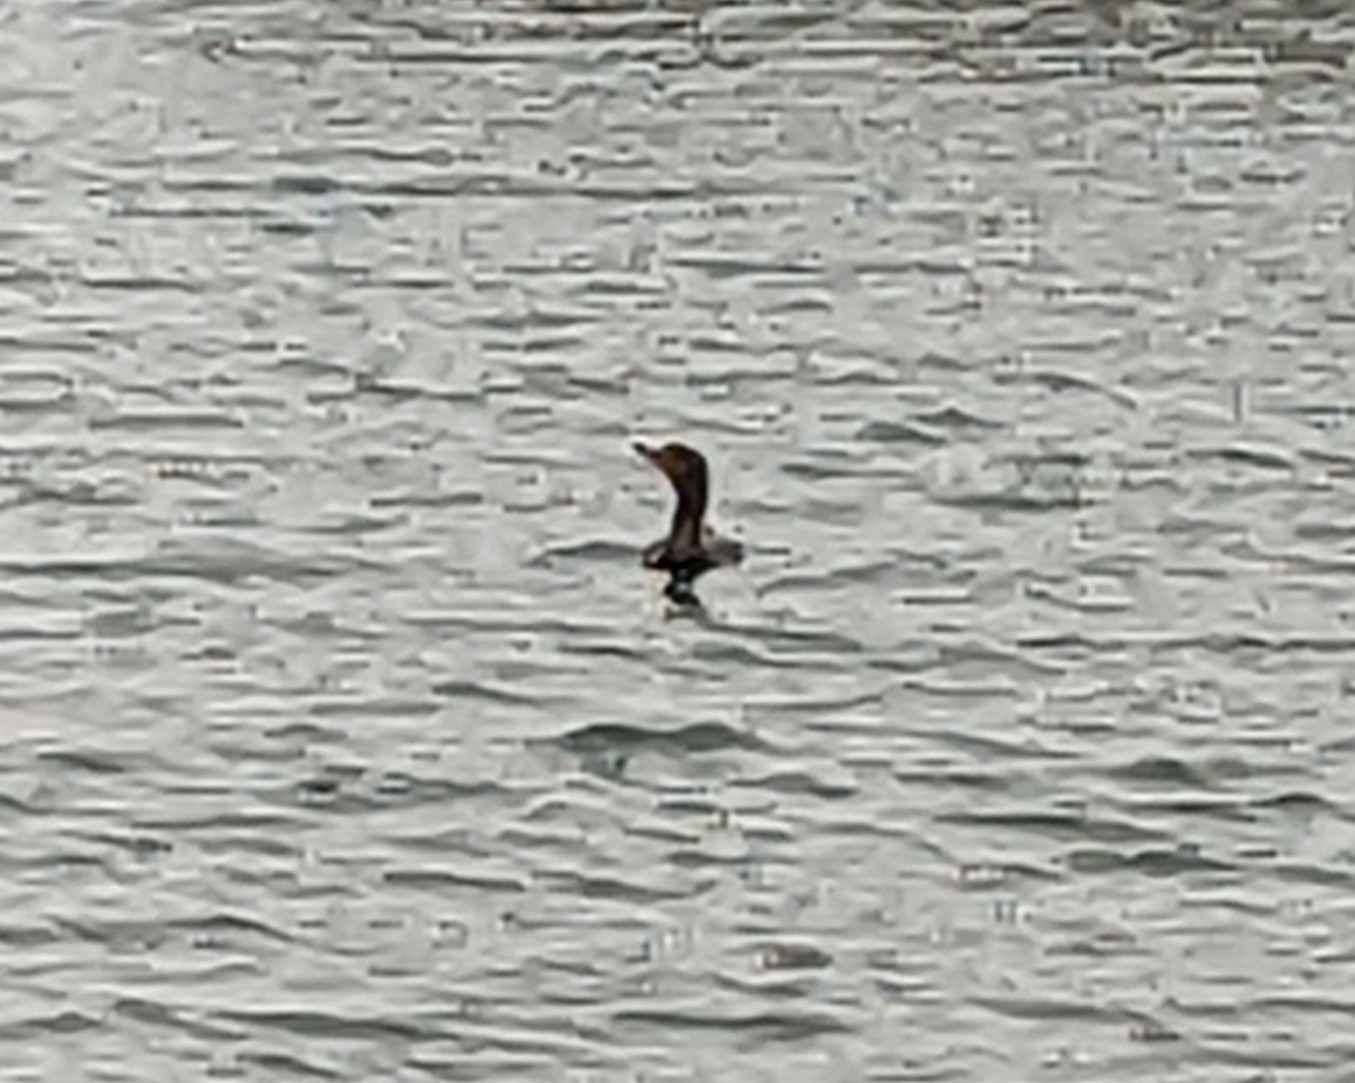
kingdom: Animalia
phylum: Chordata
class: Aves
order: Suliformes
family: Phalacrocoracidae
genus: Phalacrocorax
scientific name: Phalacrocorax auritus
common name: Double-crested cormorant
